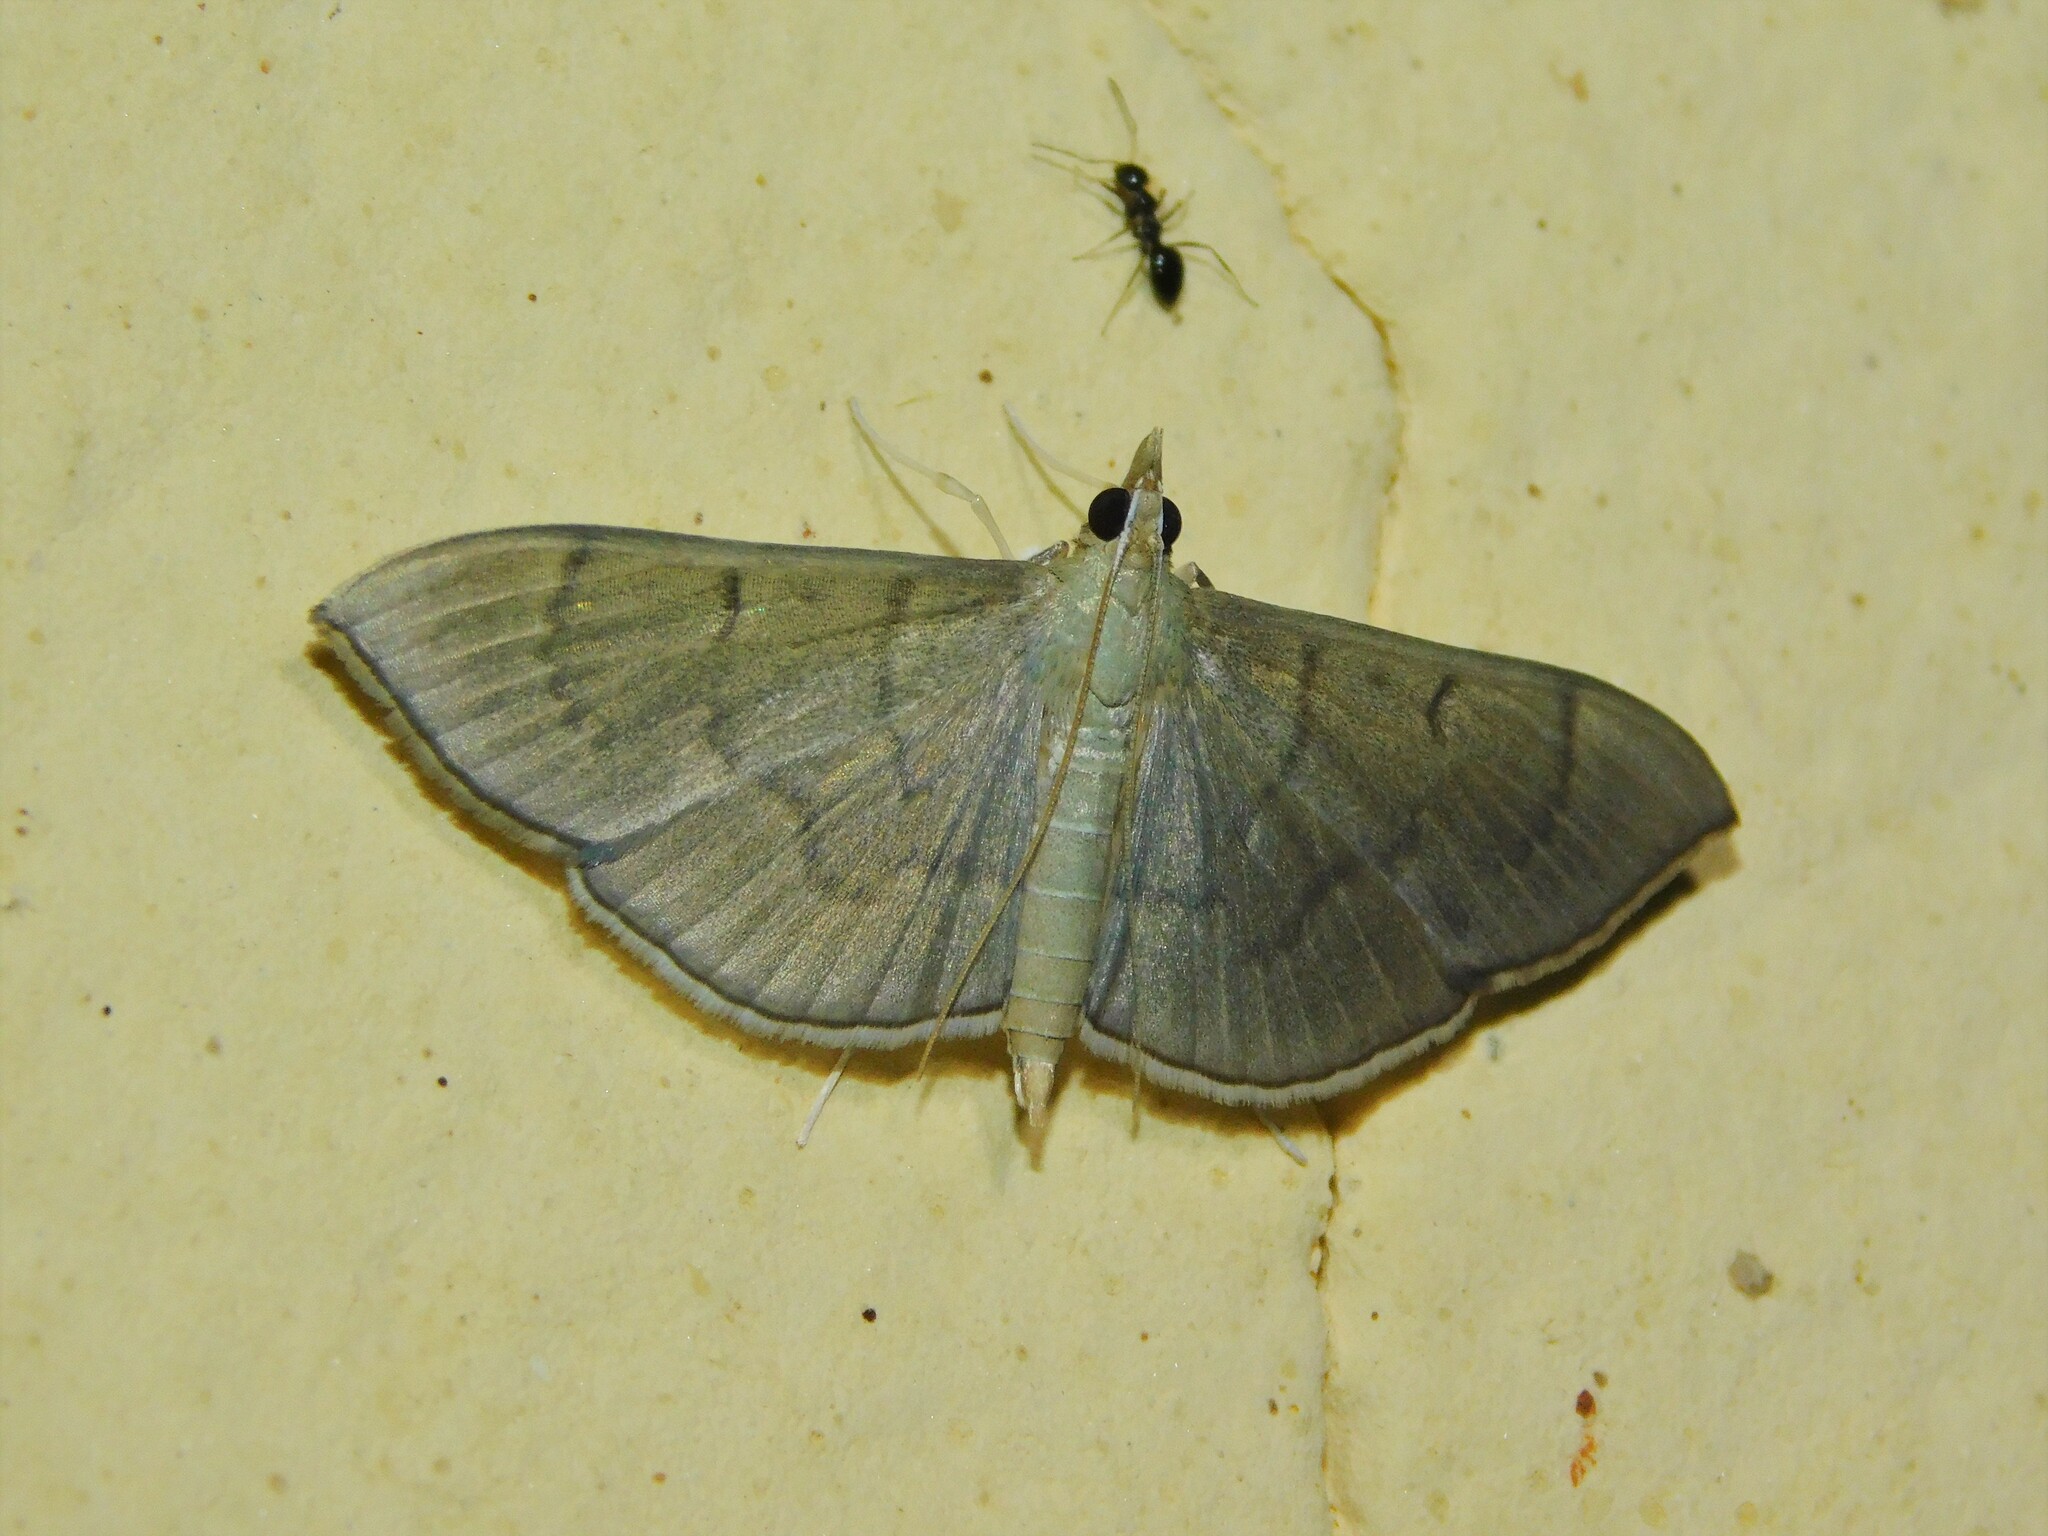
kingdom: Animalia
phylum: Arthropoda
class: Insecta
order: Lepidoptera
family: Crambidae
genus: Lamprophaia
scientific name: Lamprophaia ablactalis
